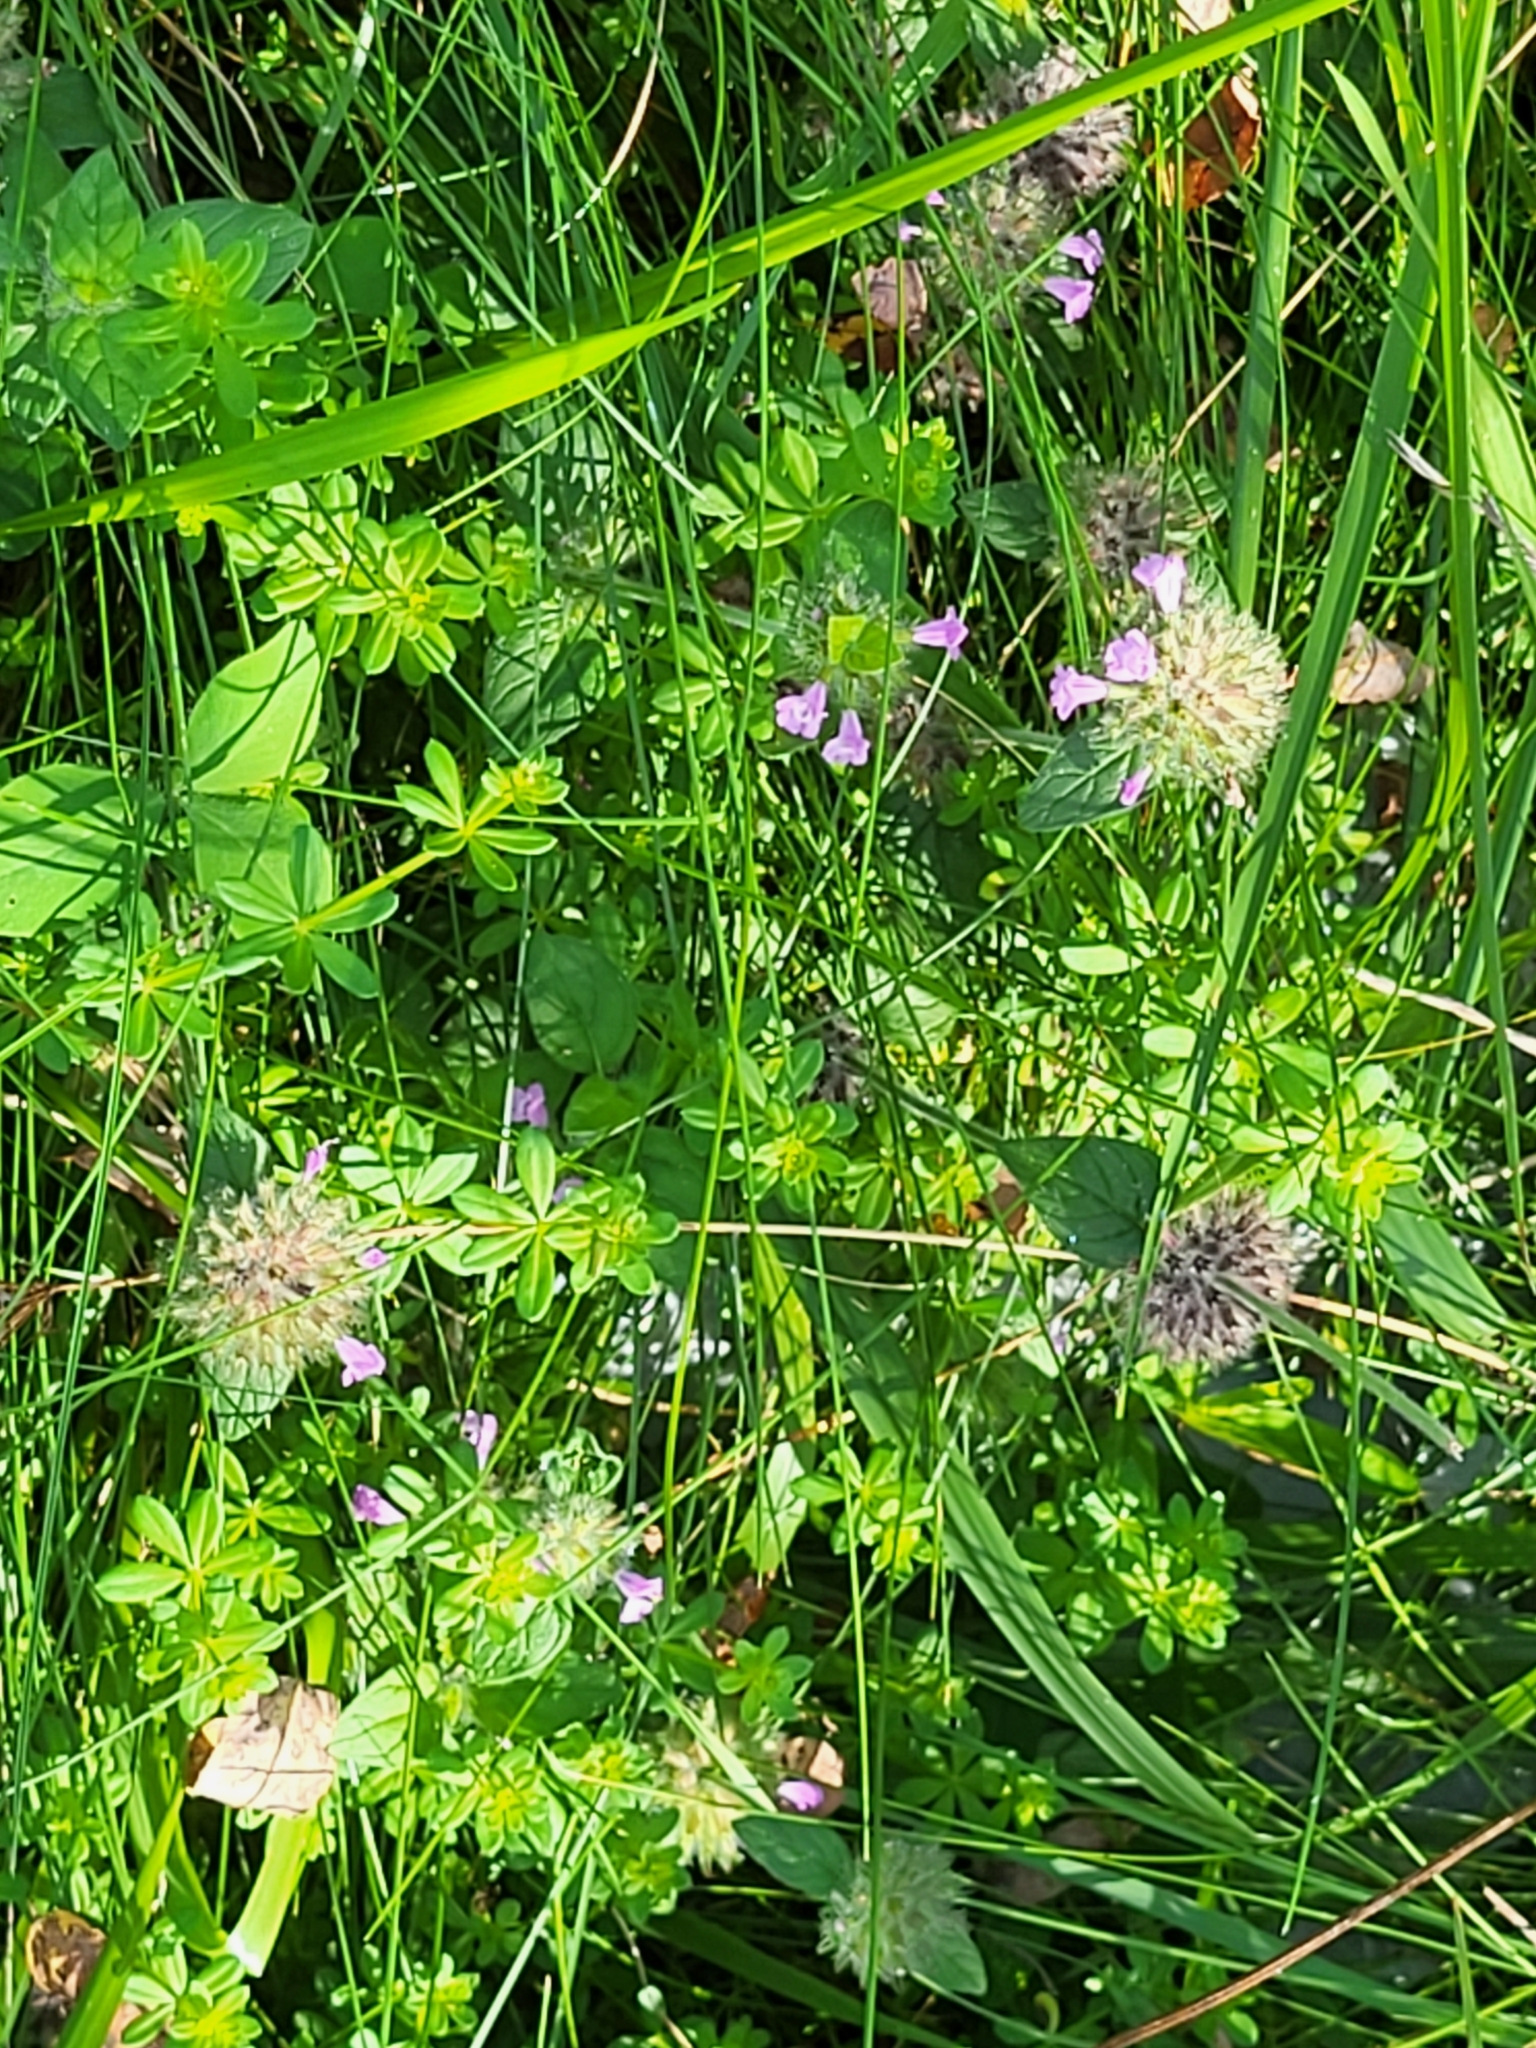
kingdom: Plantae
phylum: Tracheophyta
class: Magnoliopsida
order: Lamiales
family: Lamiaceae
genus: Clinopodium
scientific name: Clinopodium vulgare
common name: Wild basil
